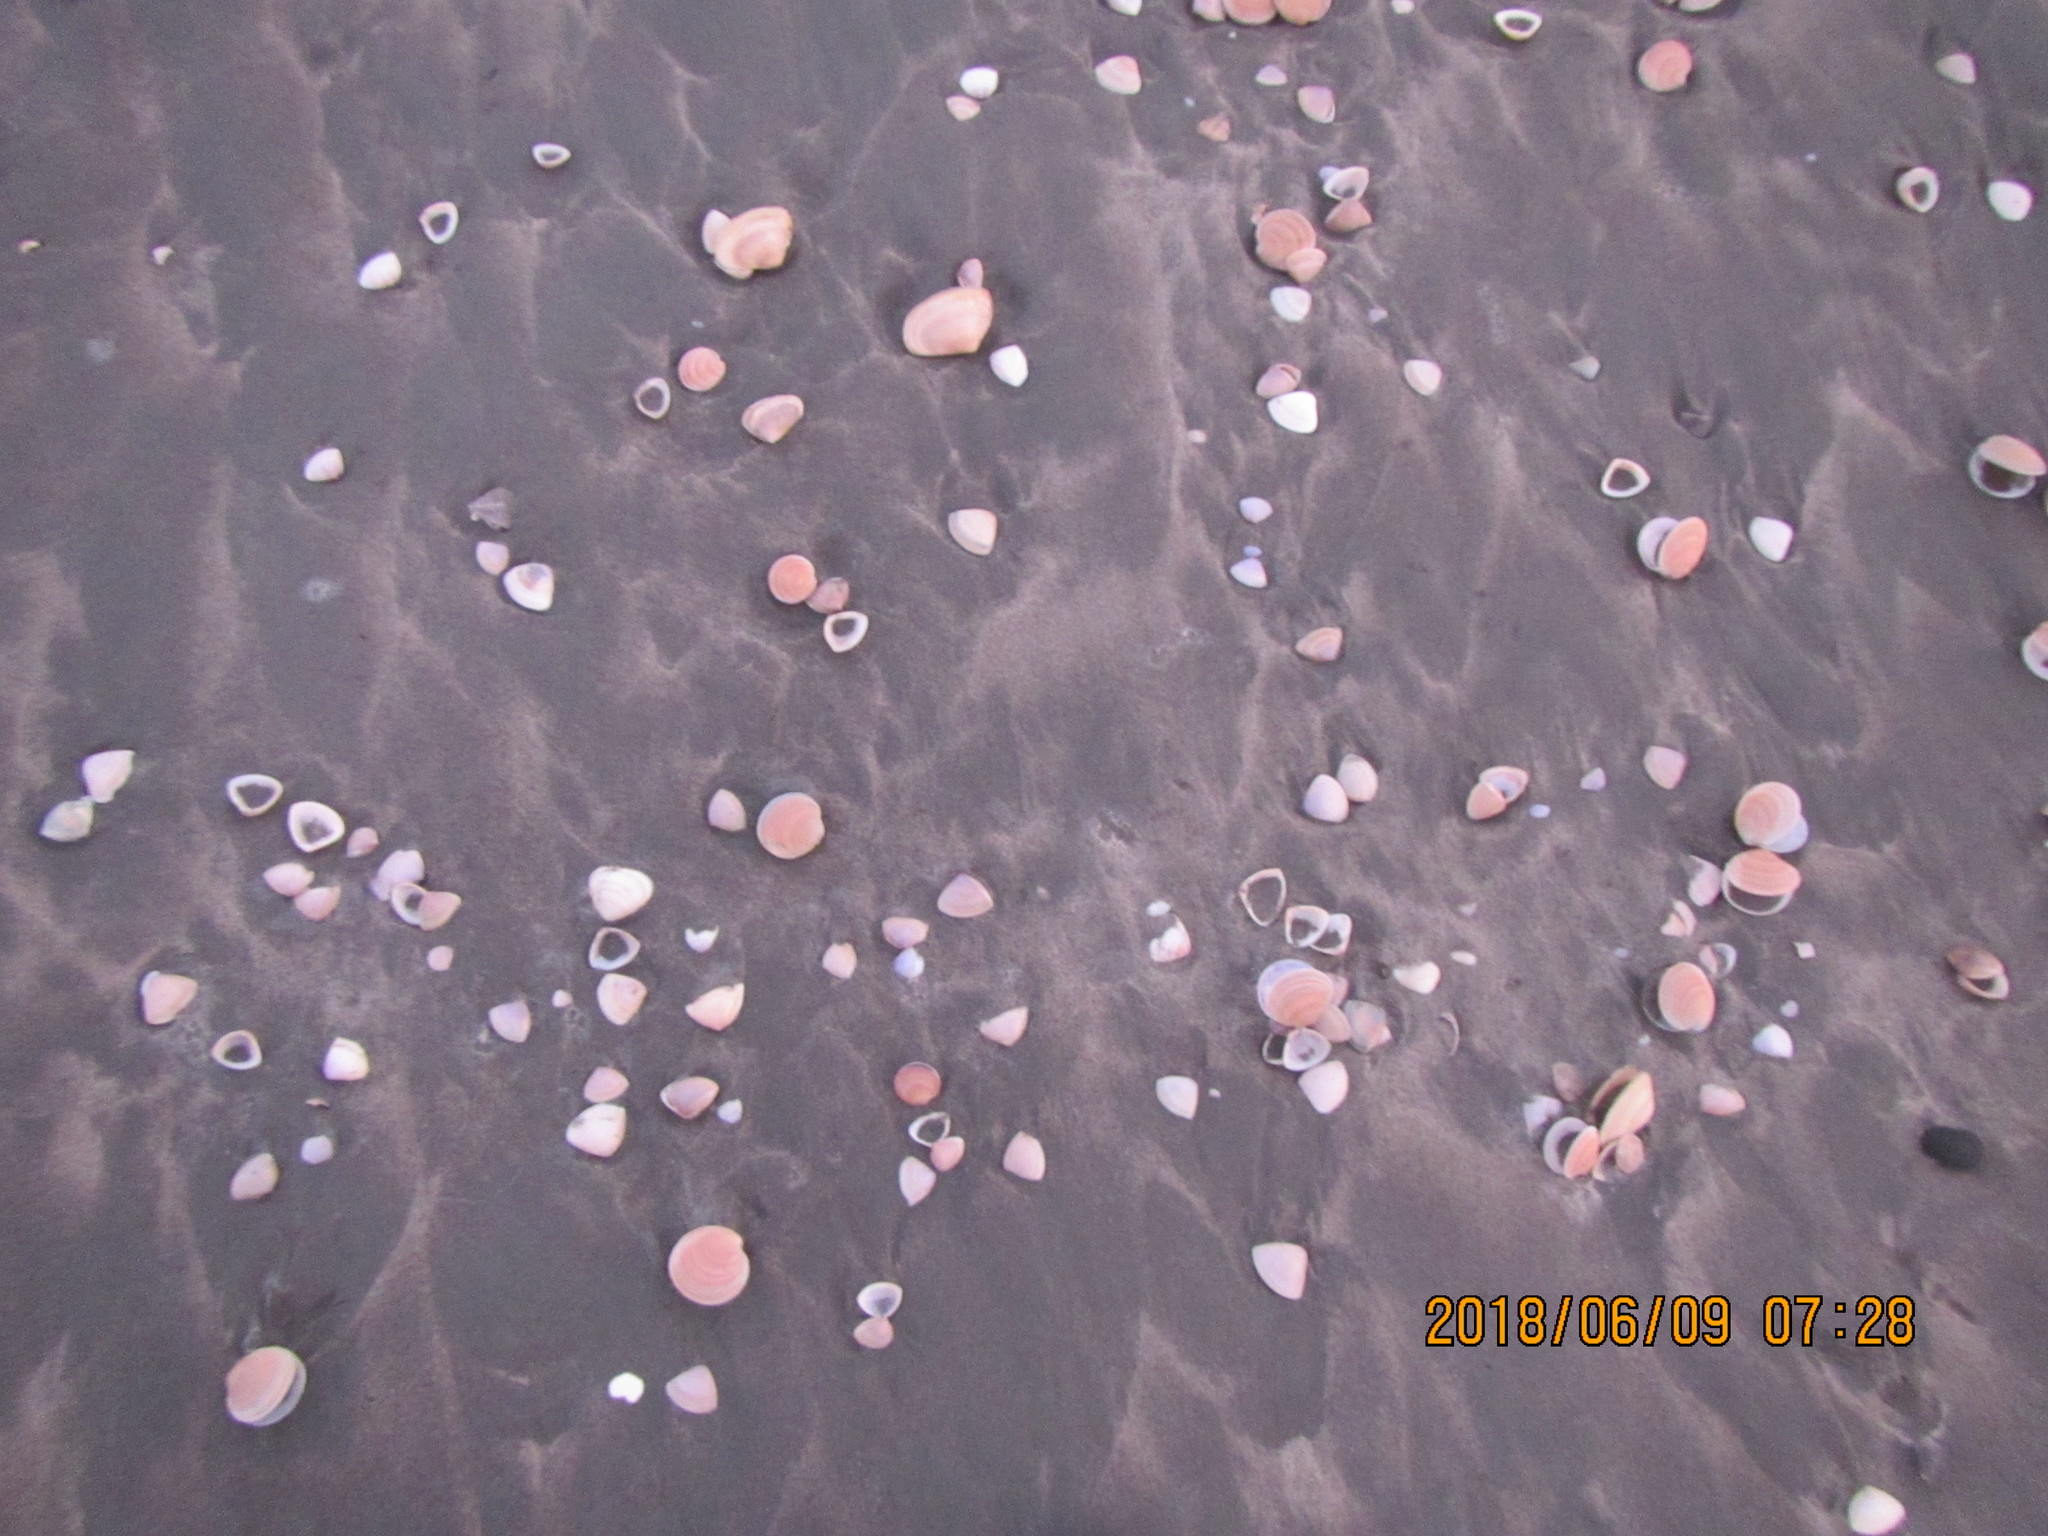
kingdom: Animalia
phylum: Mollusca
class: Bivalvia
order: Venerida
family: Mesodesmatidae
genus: Paphies
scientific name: Paphies donacina
